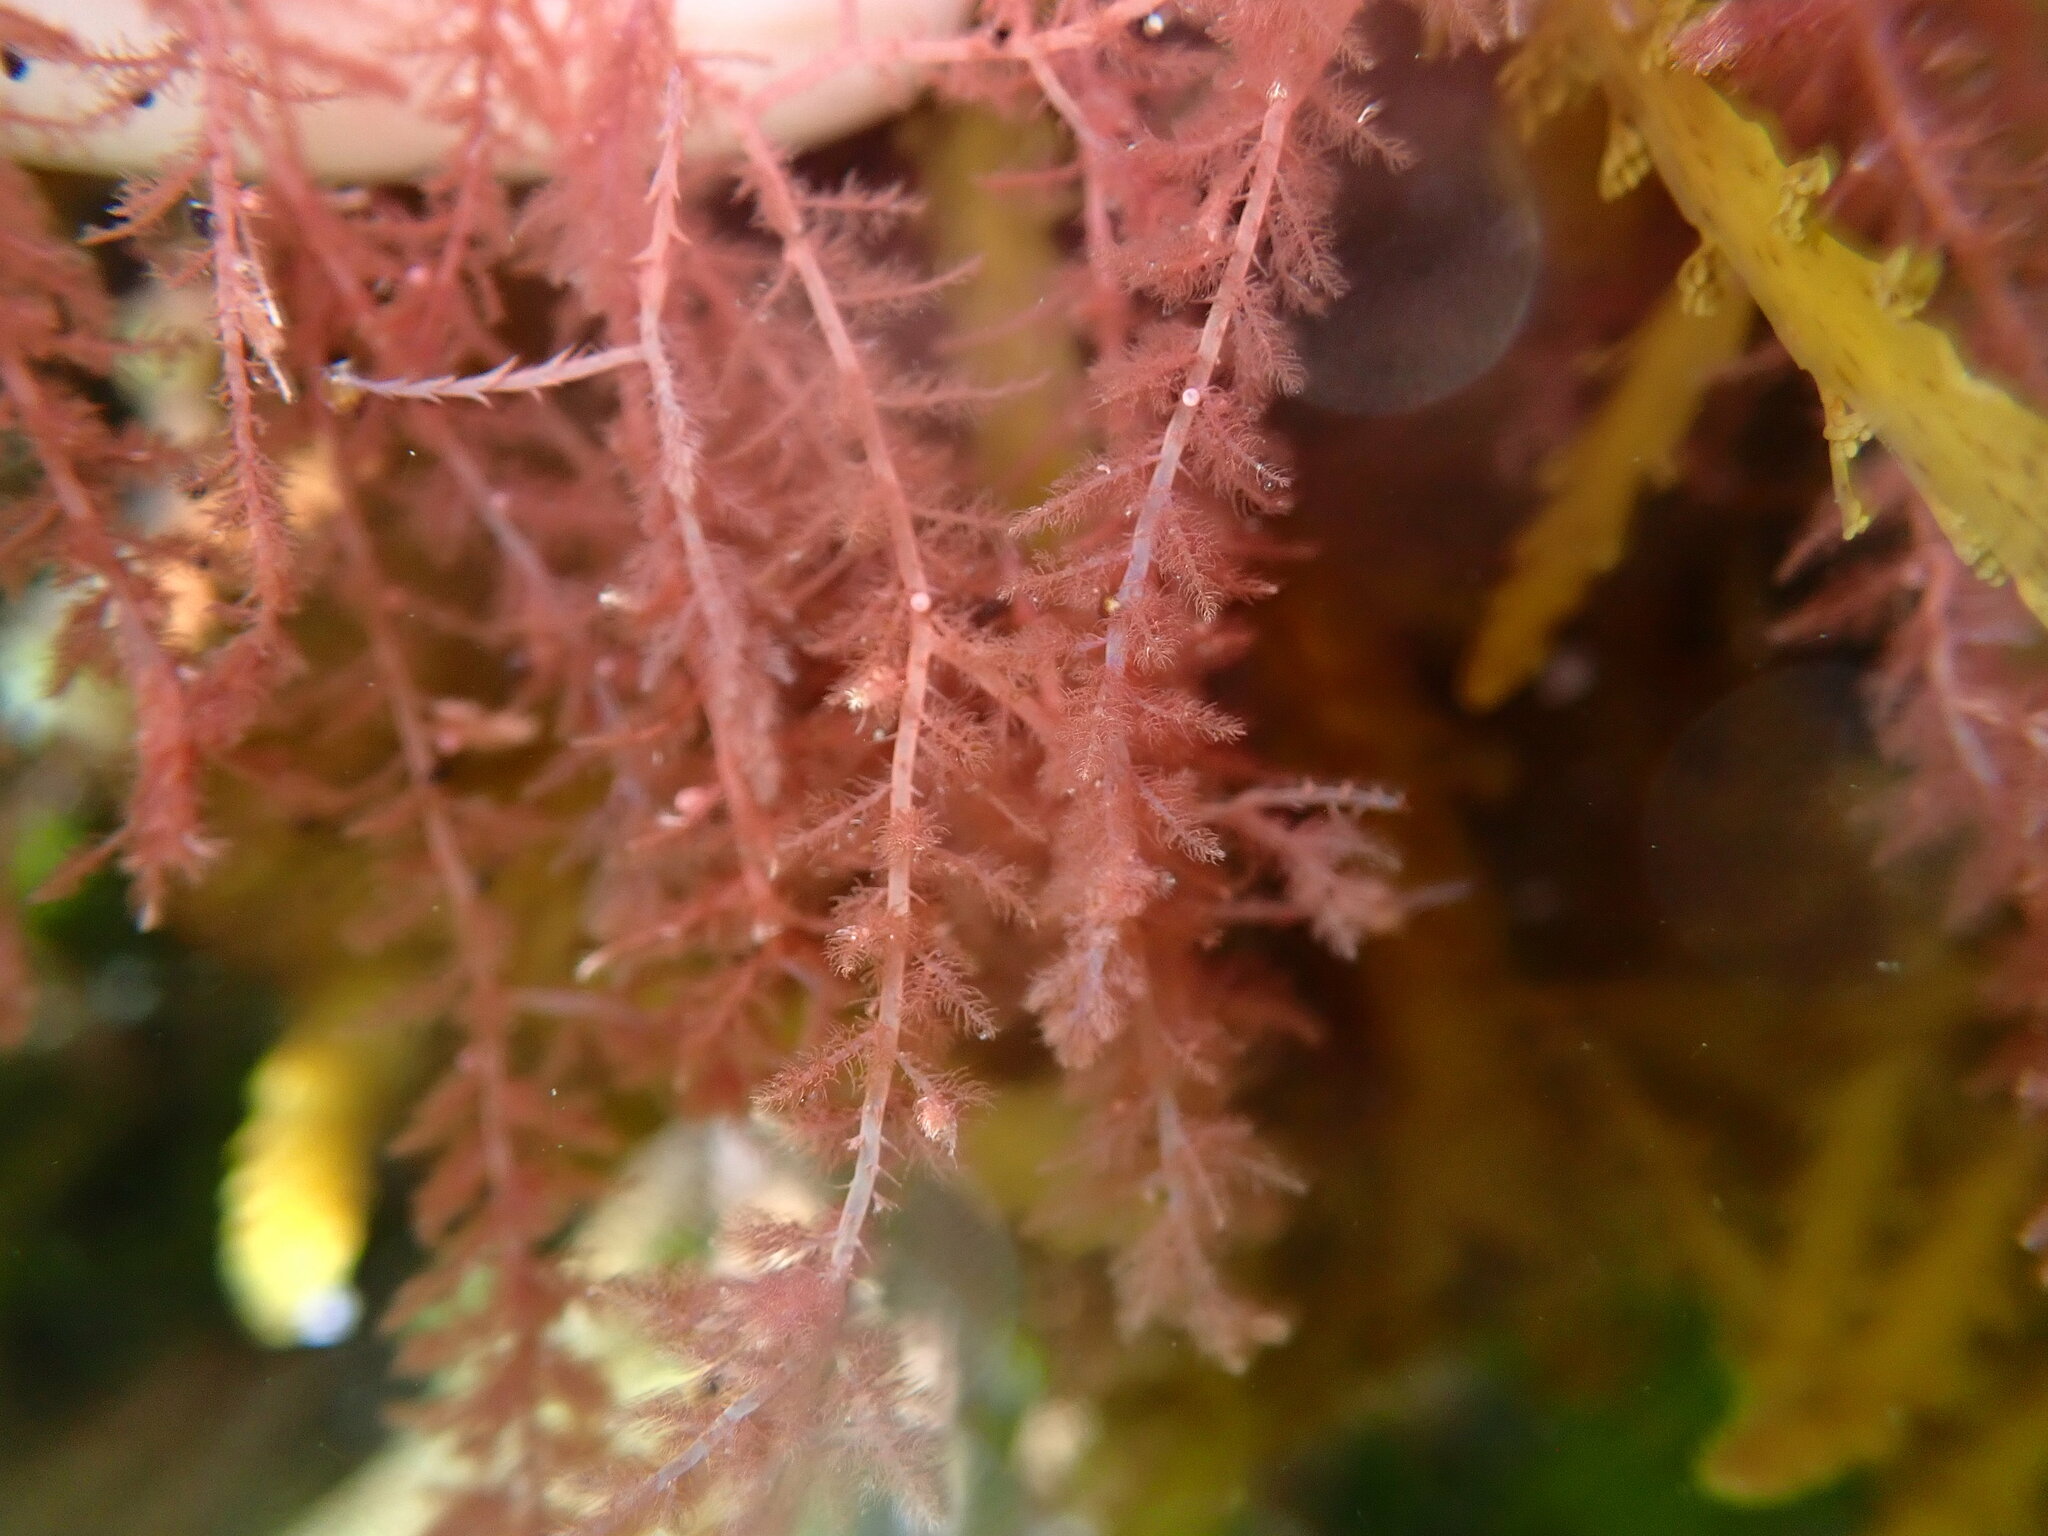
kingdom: Plantae
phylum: Rhodophyta
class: Florideophyceae
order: Bonnemaisoniales
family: Bonnemaisoniaceae
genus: Asparagopsis
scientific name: Asparagopsis armata
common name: Harpoon weed
